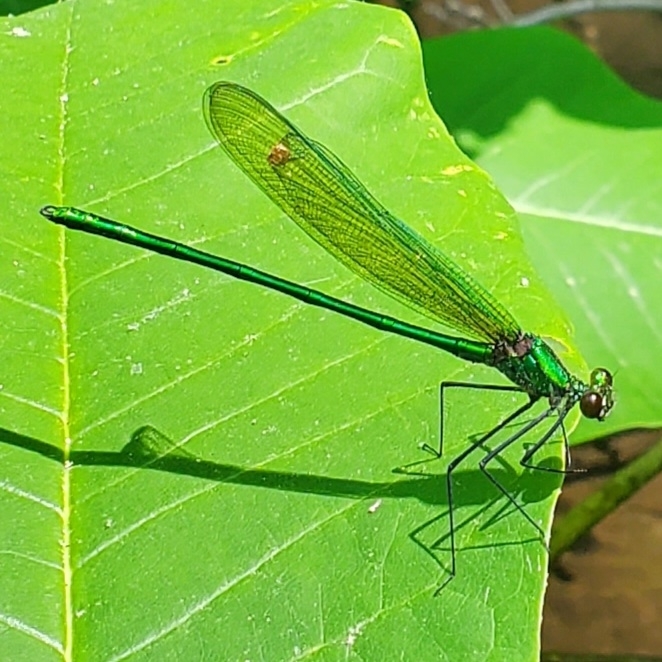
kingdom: Animalia
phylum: Arthropoda
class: Insecta
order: Odonata
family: Calopterygidae
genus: Calopteryx
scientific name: Calopteryx angustipennis
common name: Appalachian jewelwing
